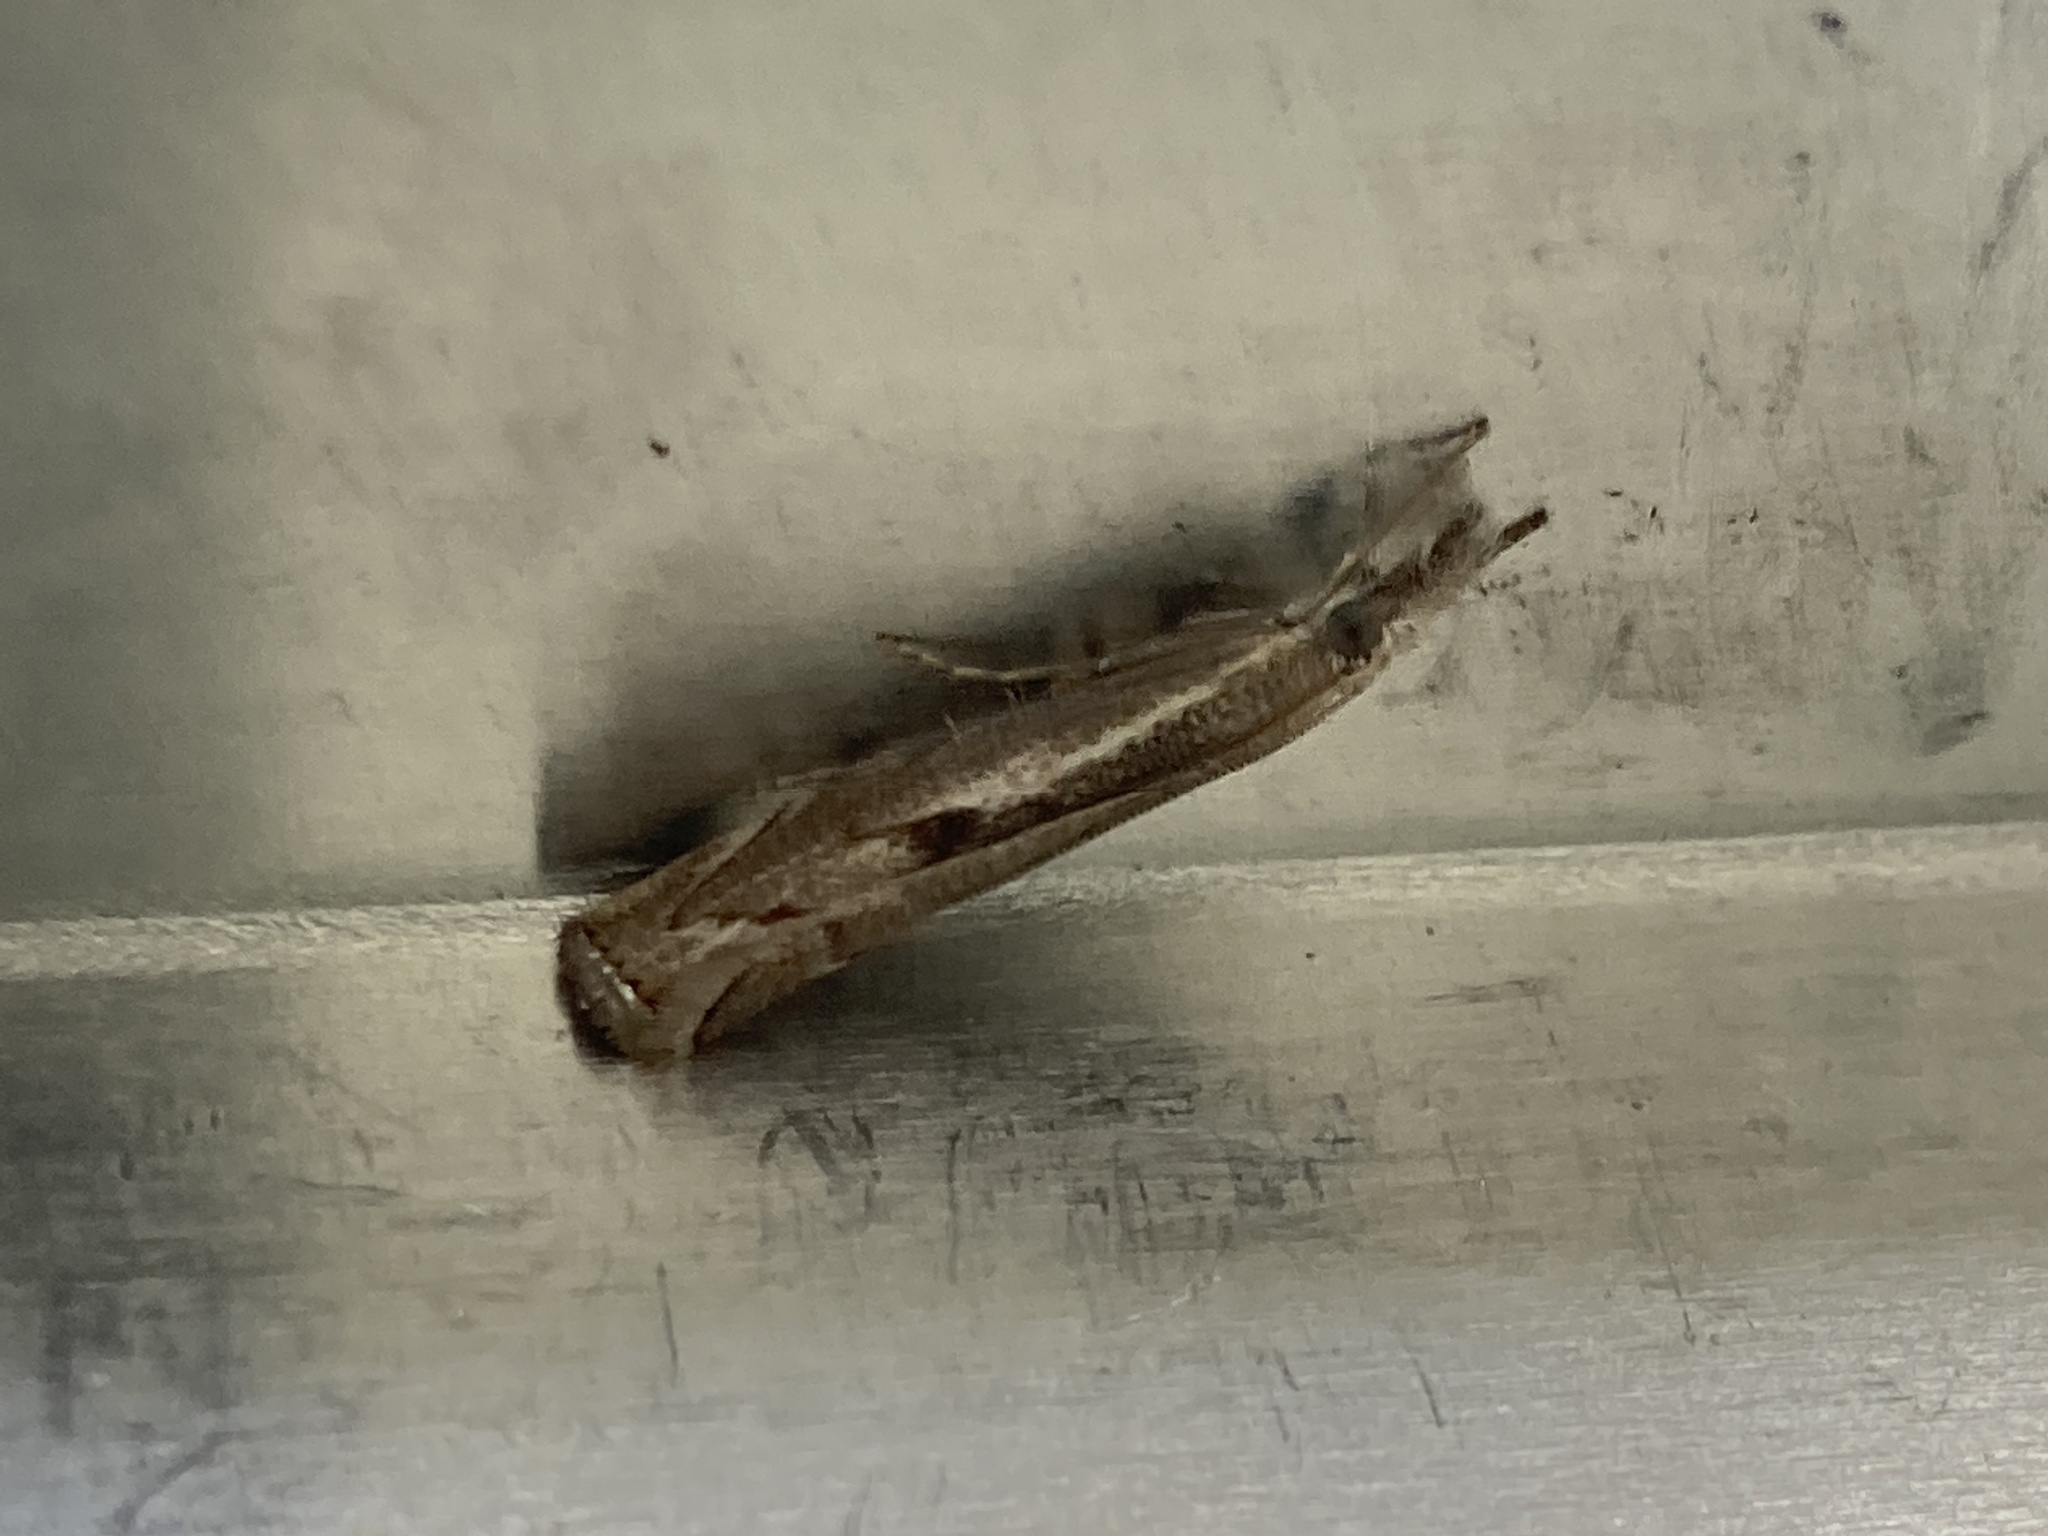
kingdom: Animalia
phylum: Arthropoda
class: Insecta
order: Lepidoptera
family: Crambidae
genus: Agriphila
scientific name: Agriphila geniculea
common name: Elbow-stripe grass-veneer
